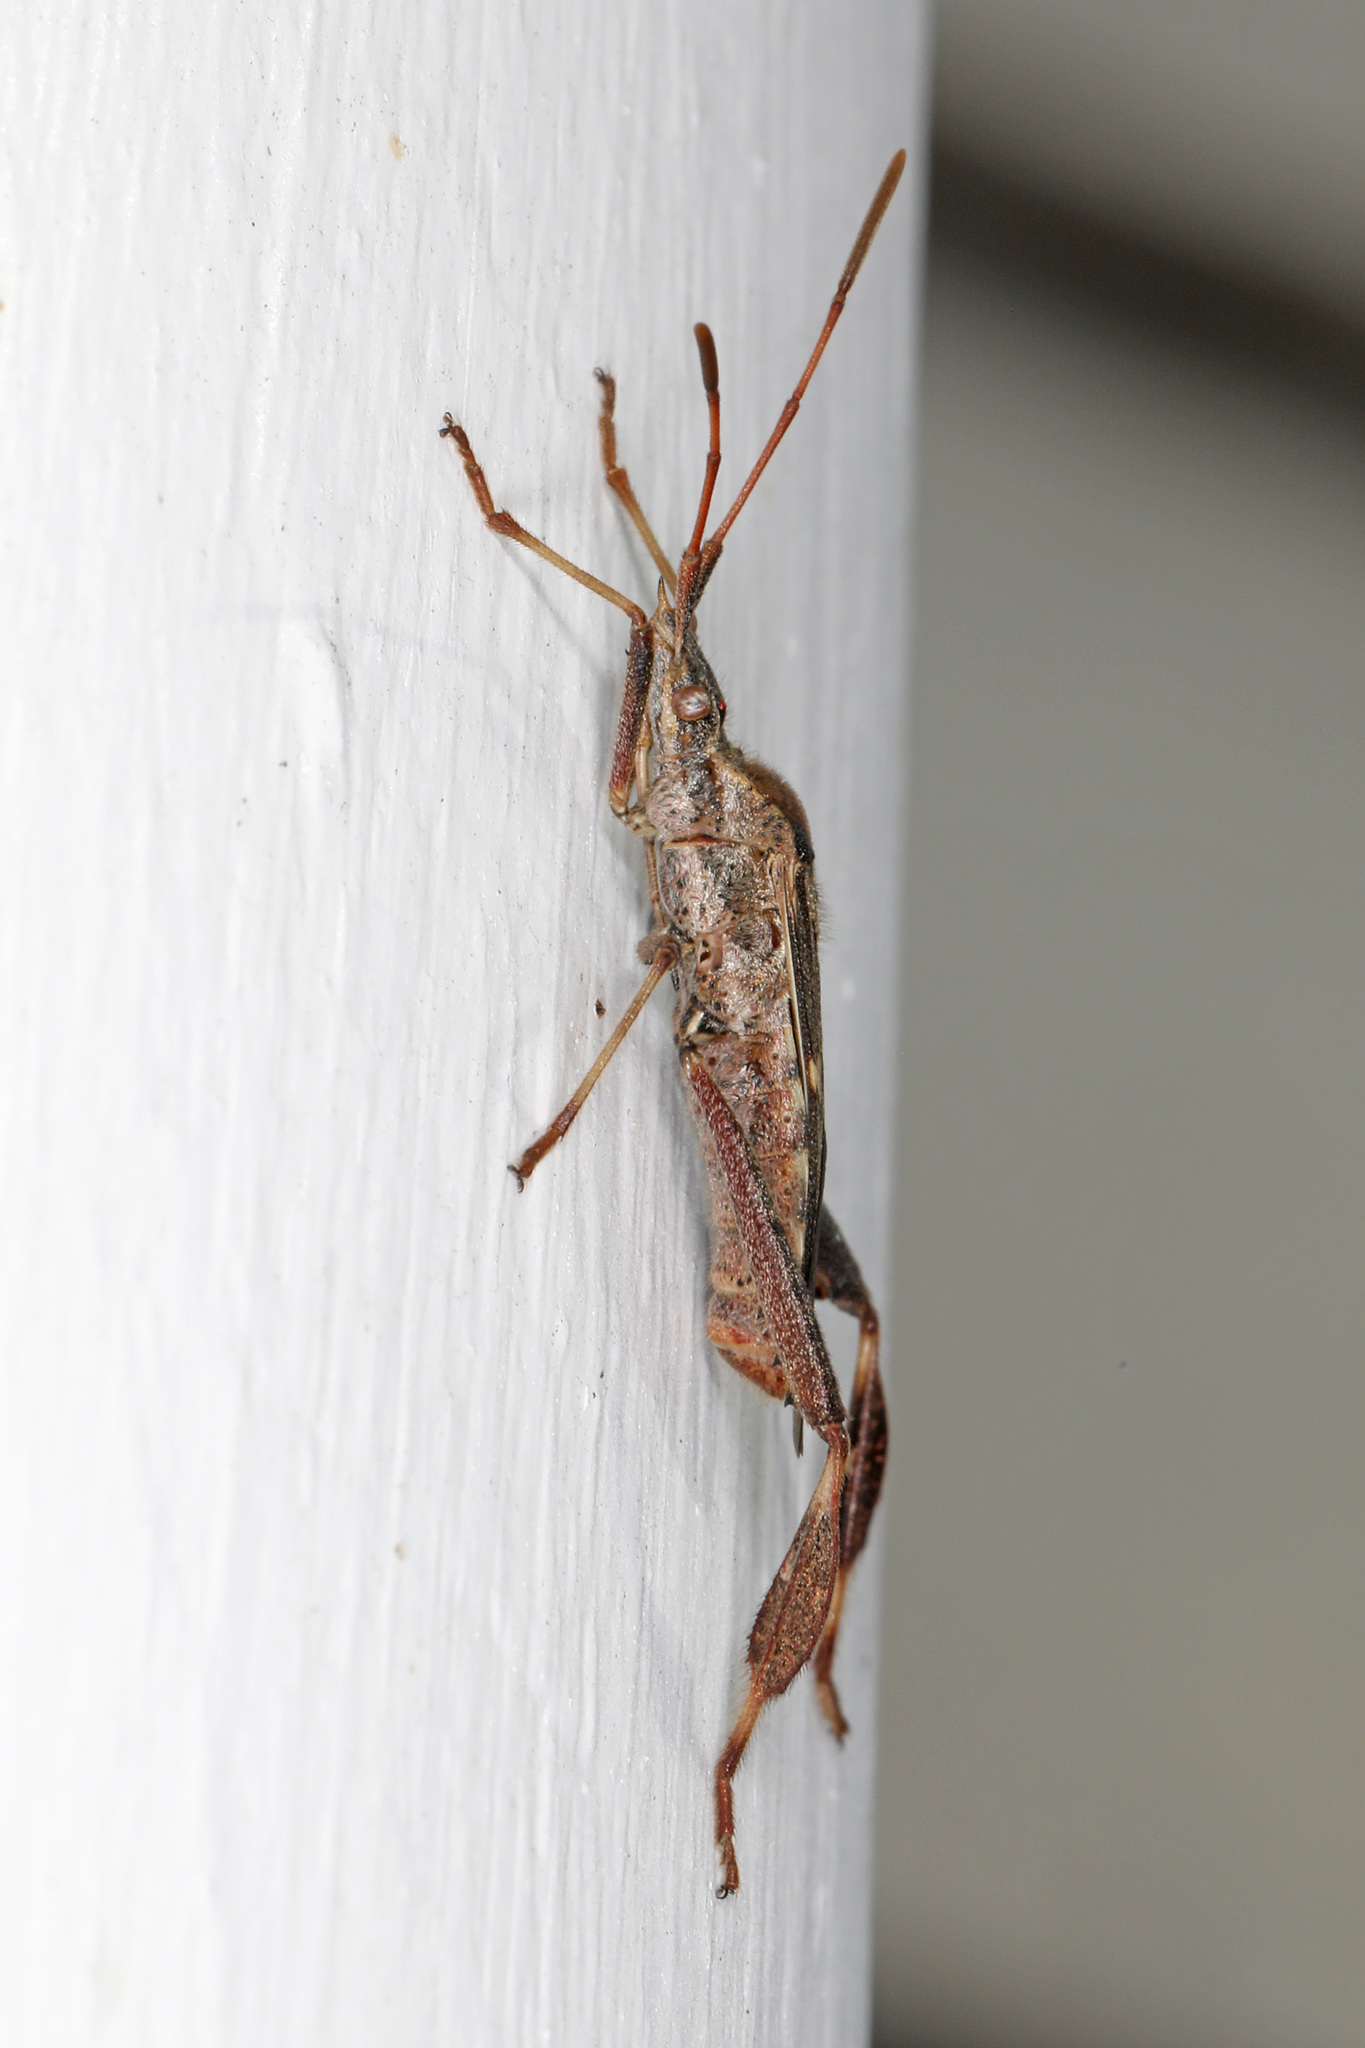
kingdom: Animalia
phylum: Arthropoda
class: Insecta
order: Hemiptera
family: Coreidae
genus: Leptoglossus
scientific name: Leptoglossus clypealis
